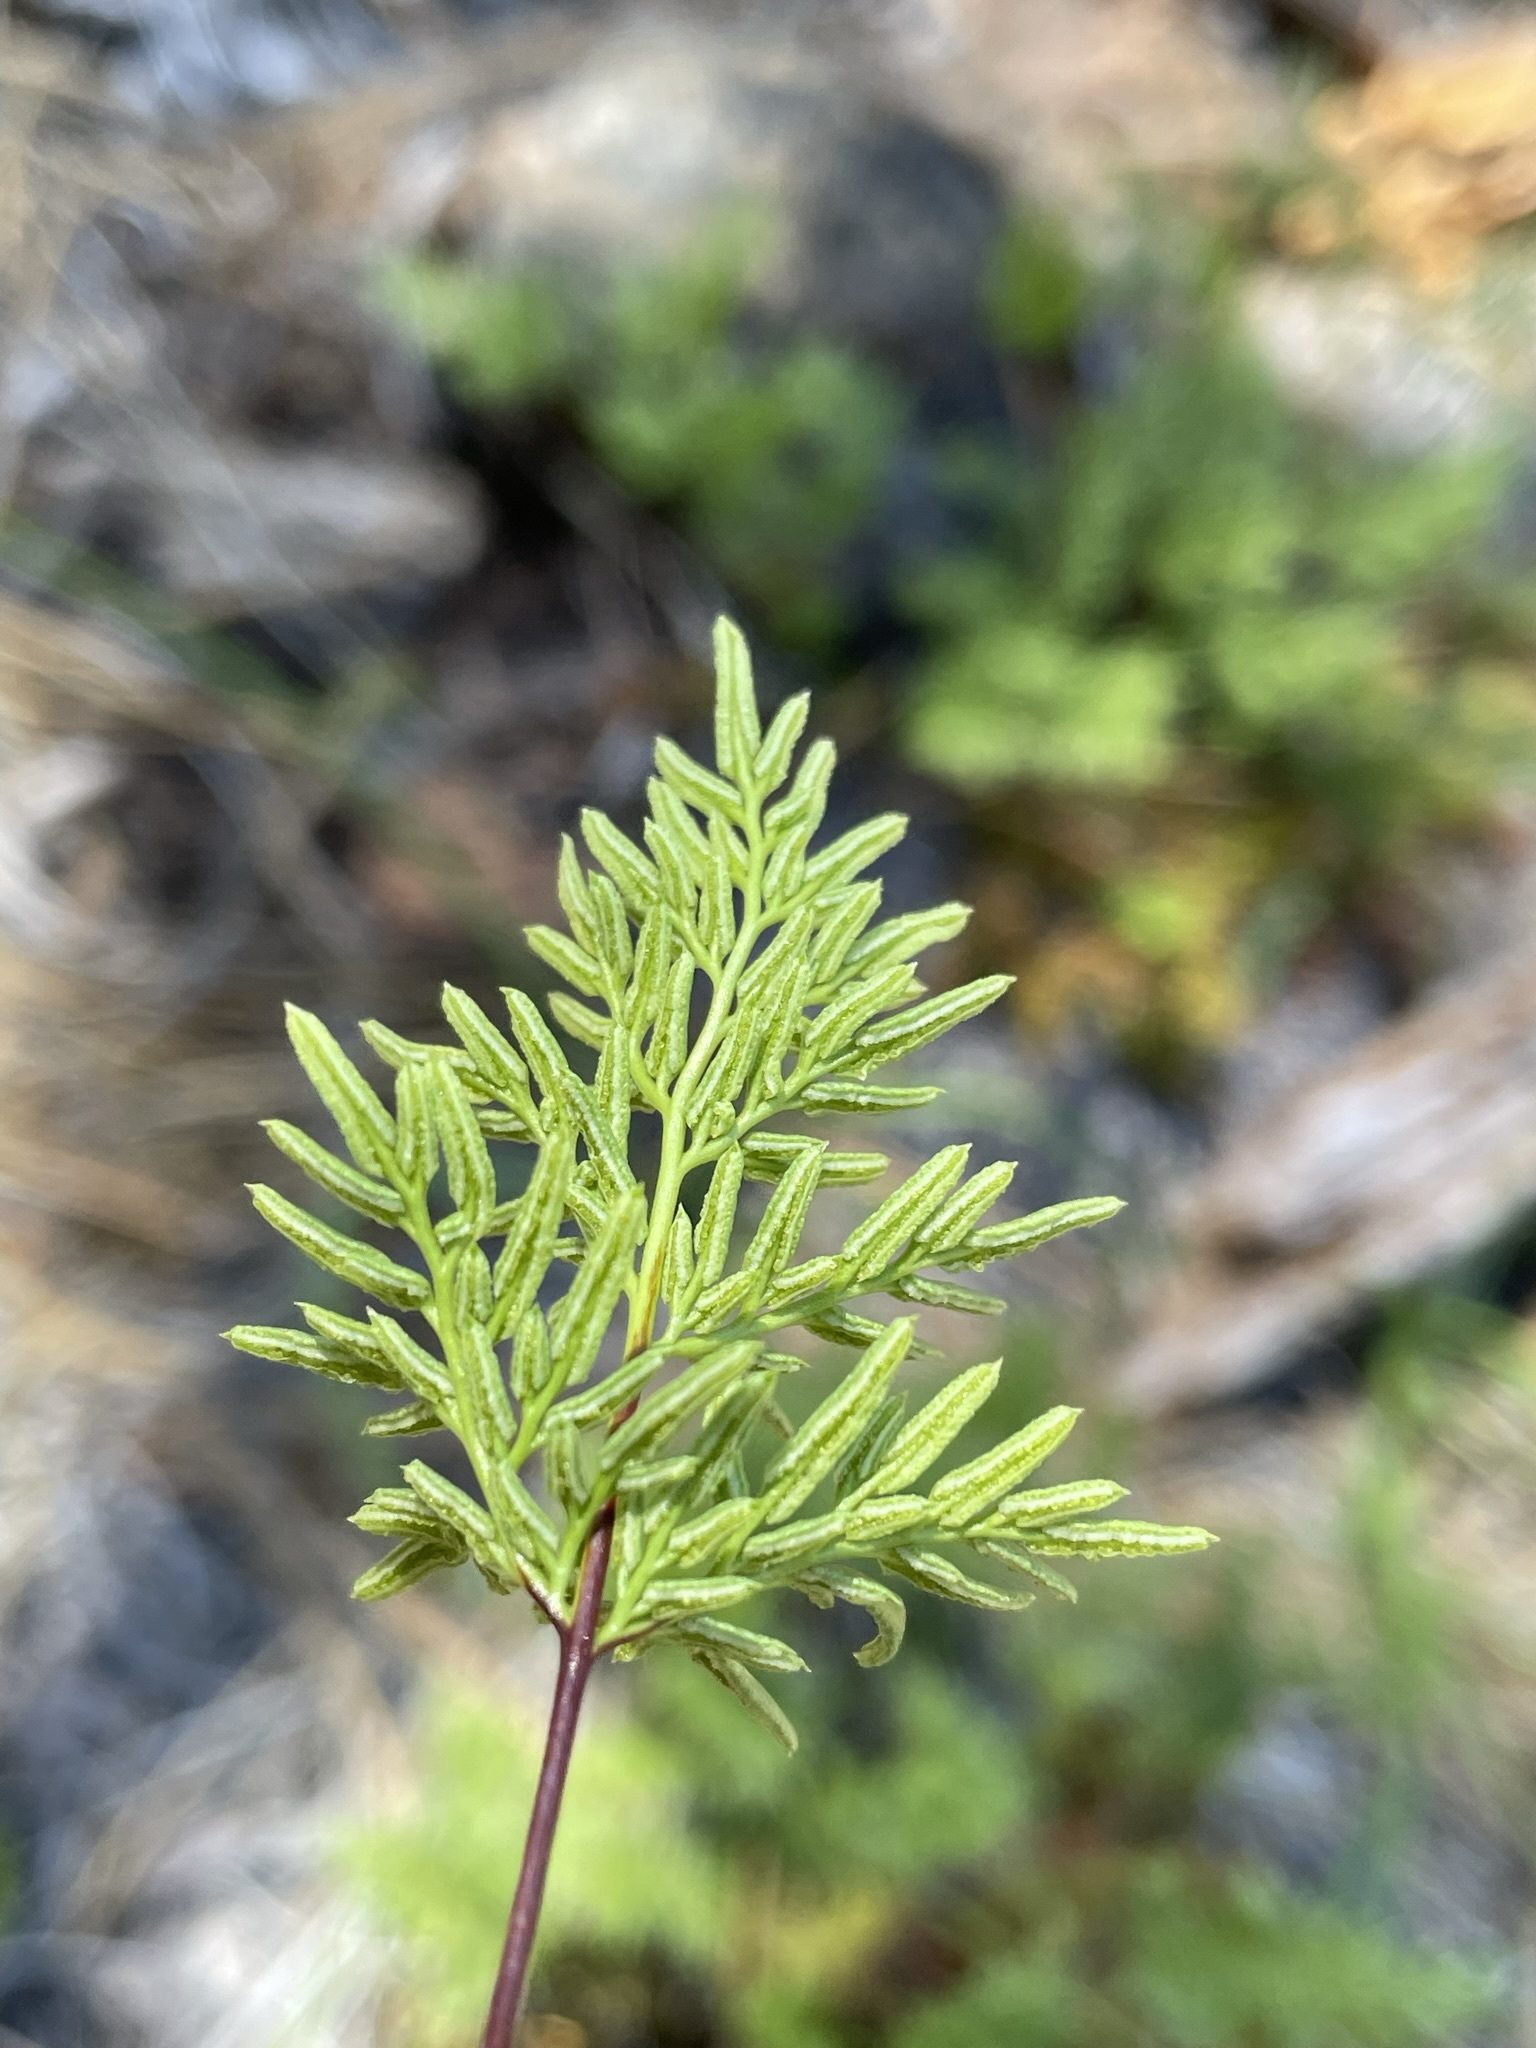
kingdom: Plantae
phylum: Tracheophyta
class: Polypodiopsida
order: Polypodiales
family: Pteridaceae
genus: Aspidotis
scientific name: Aspidotis densa
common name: Indian's dream
